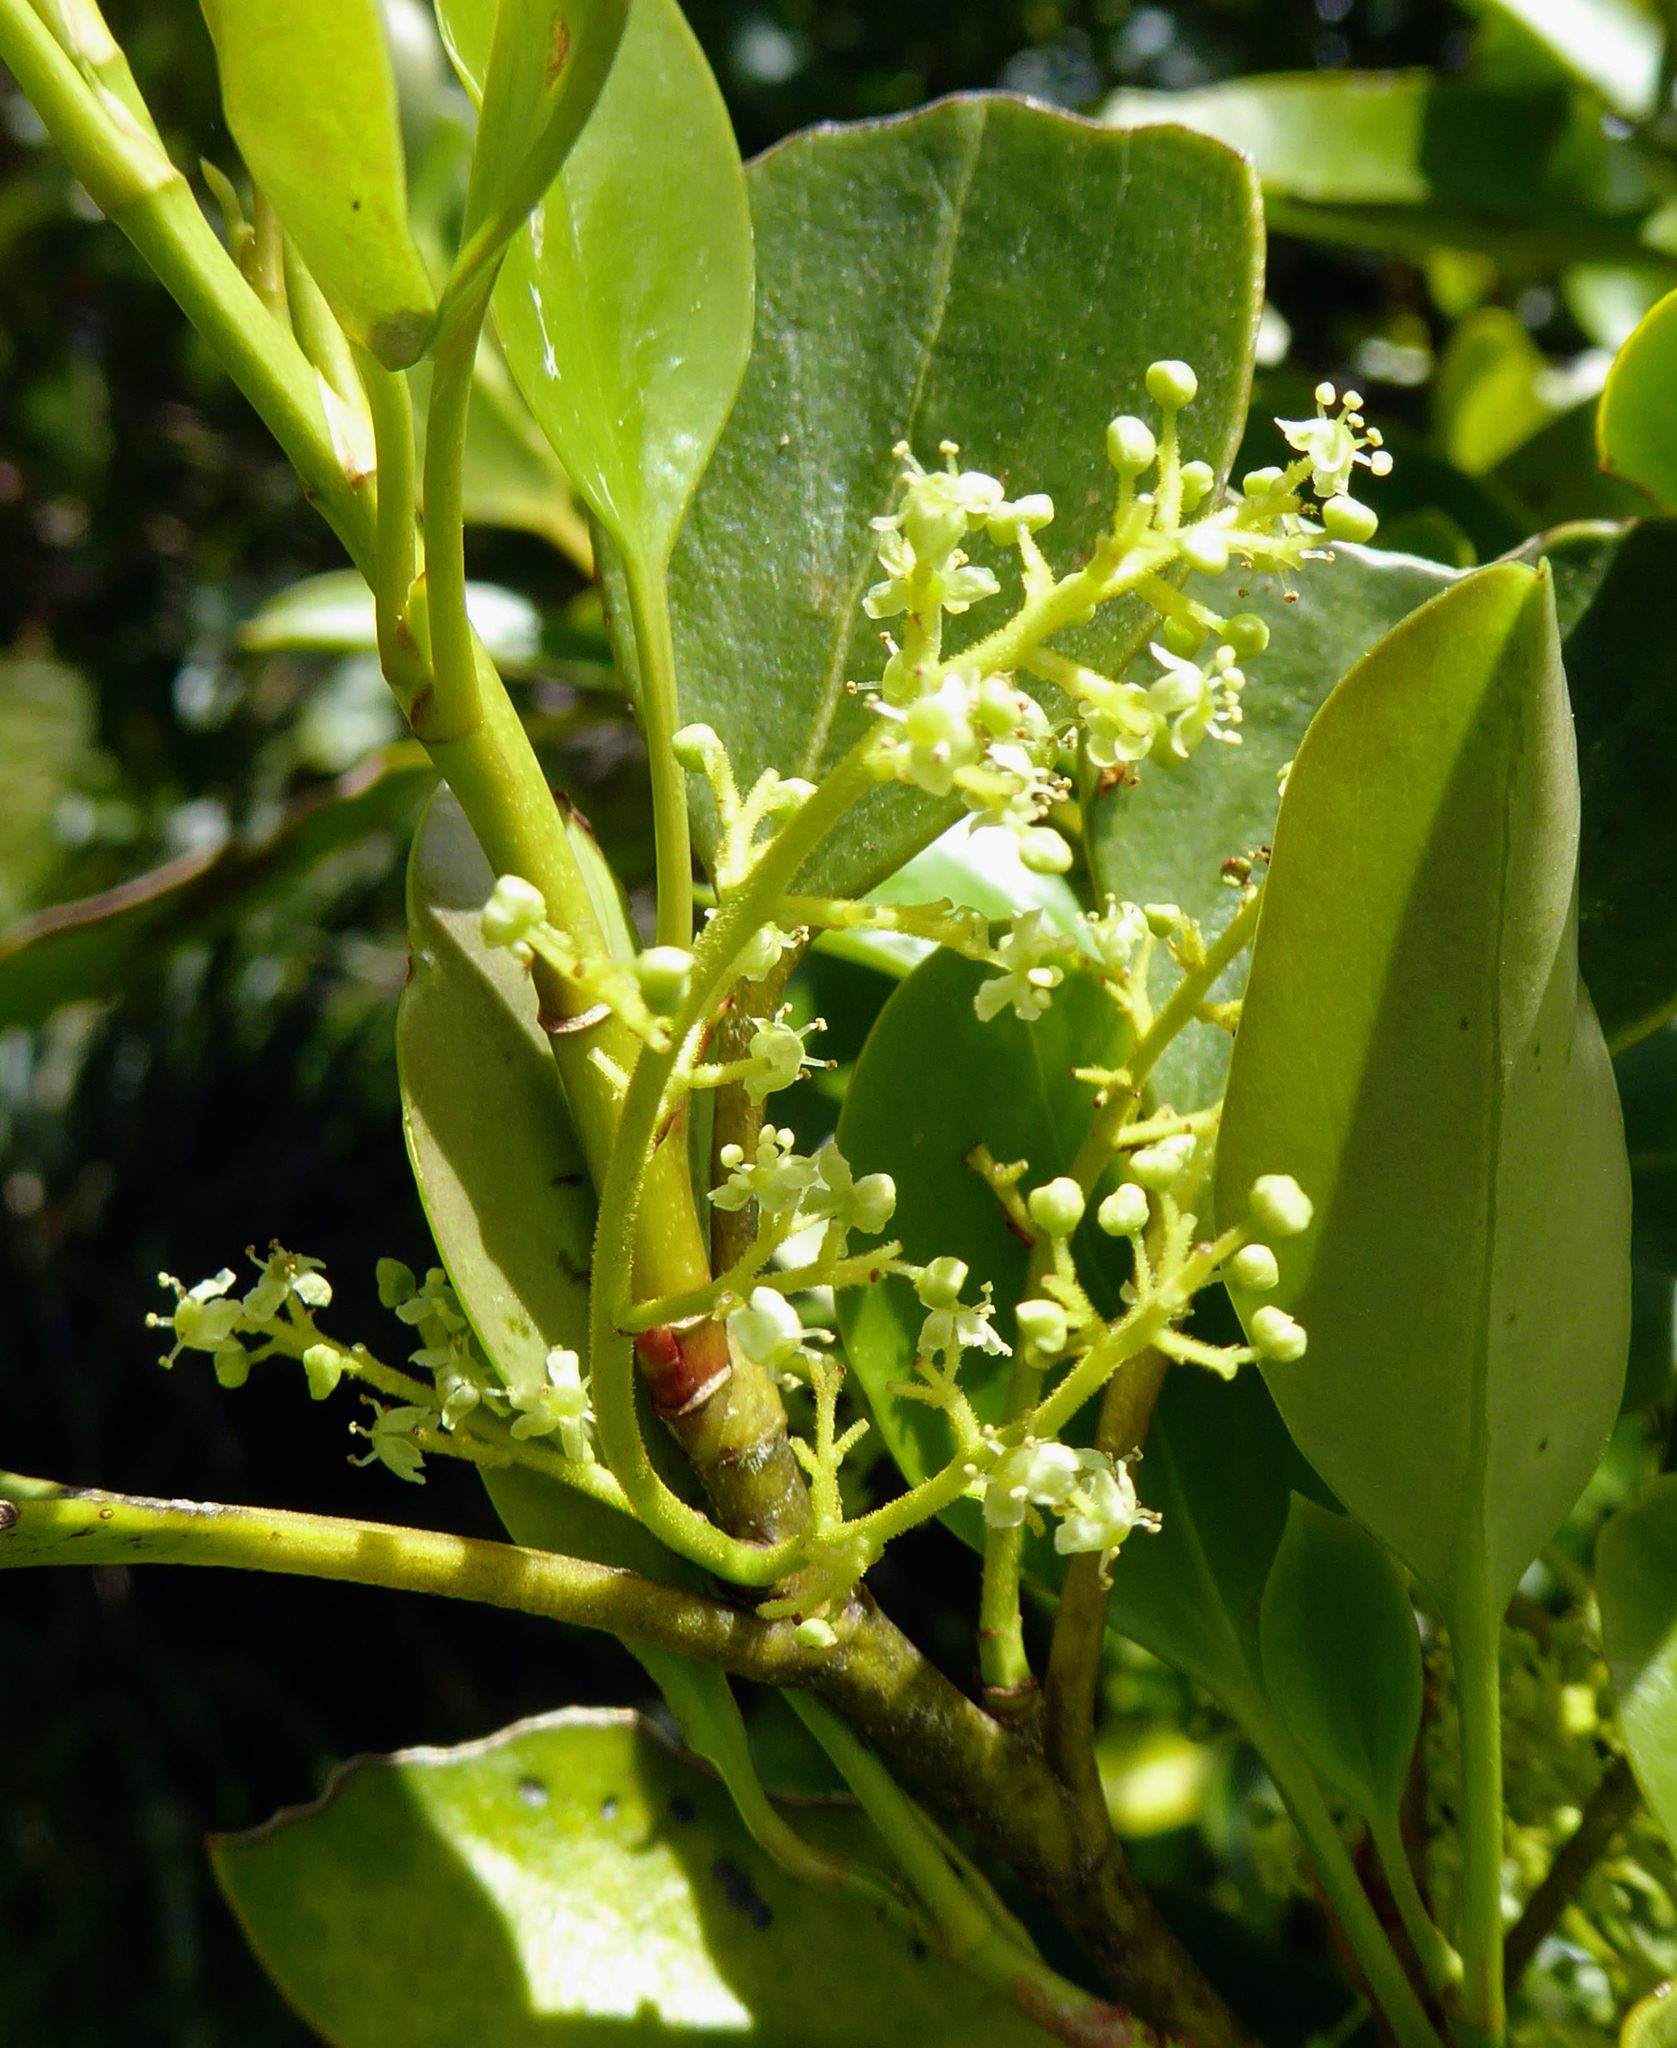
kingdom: Plantae
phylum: Tracheophyta
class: Magnoliopsida
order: Apiales
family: Griseliniaceae
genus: Griselinia
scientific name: Griselinia littoralis
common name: New zealand broadleaf
